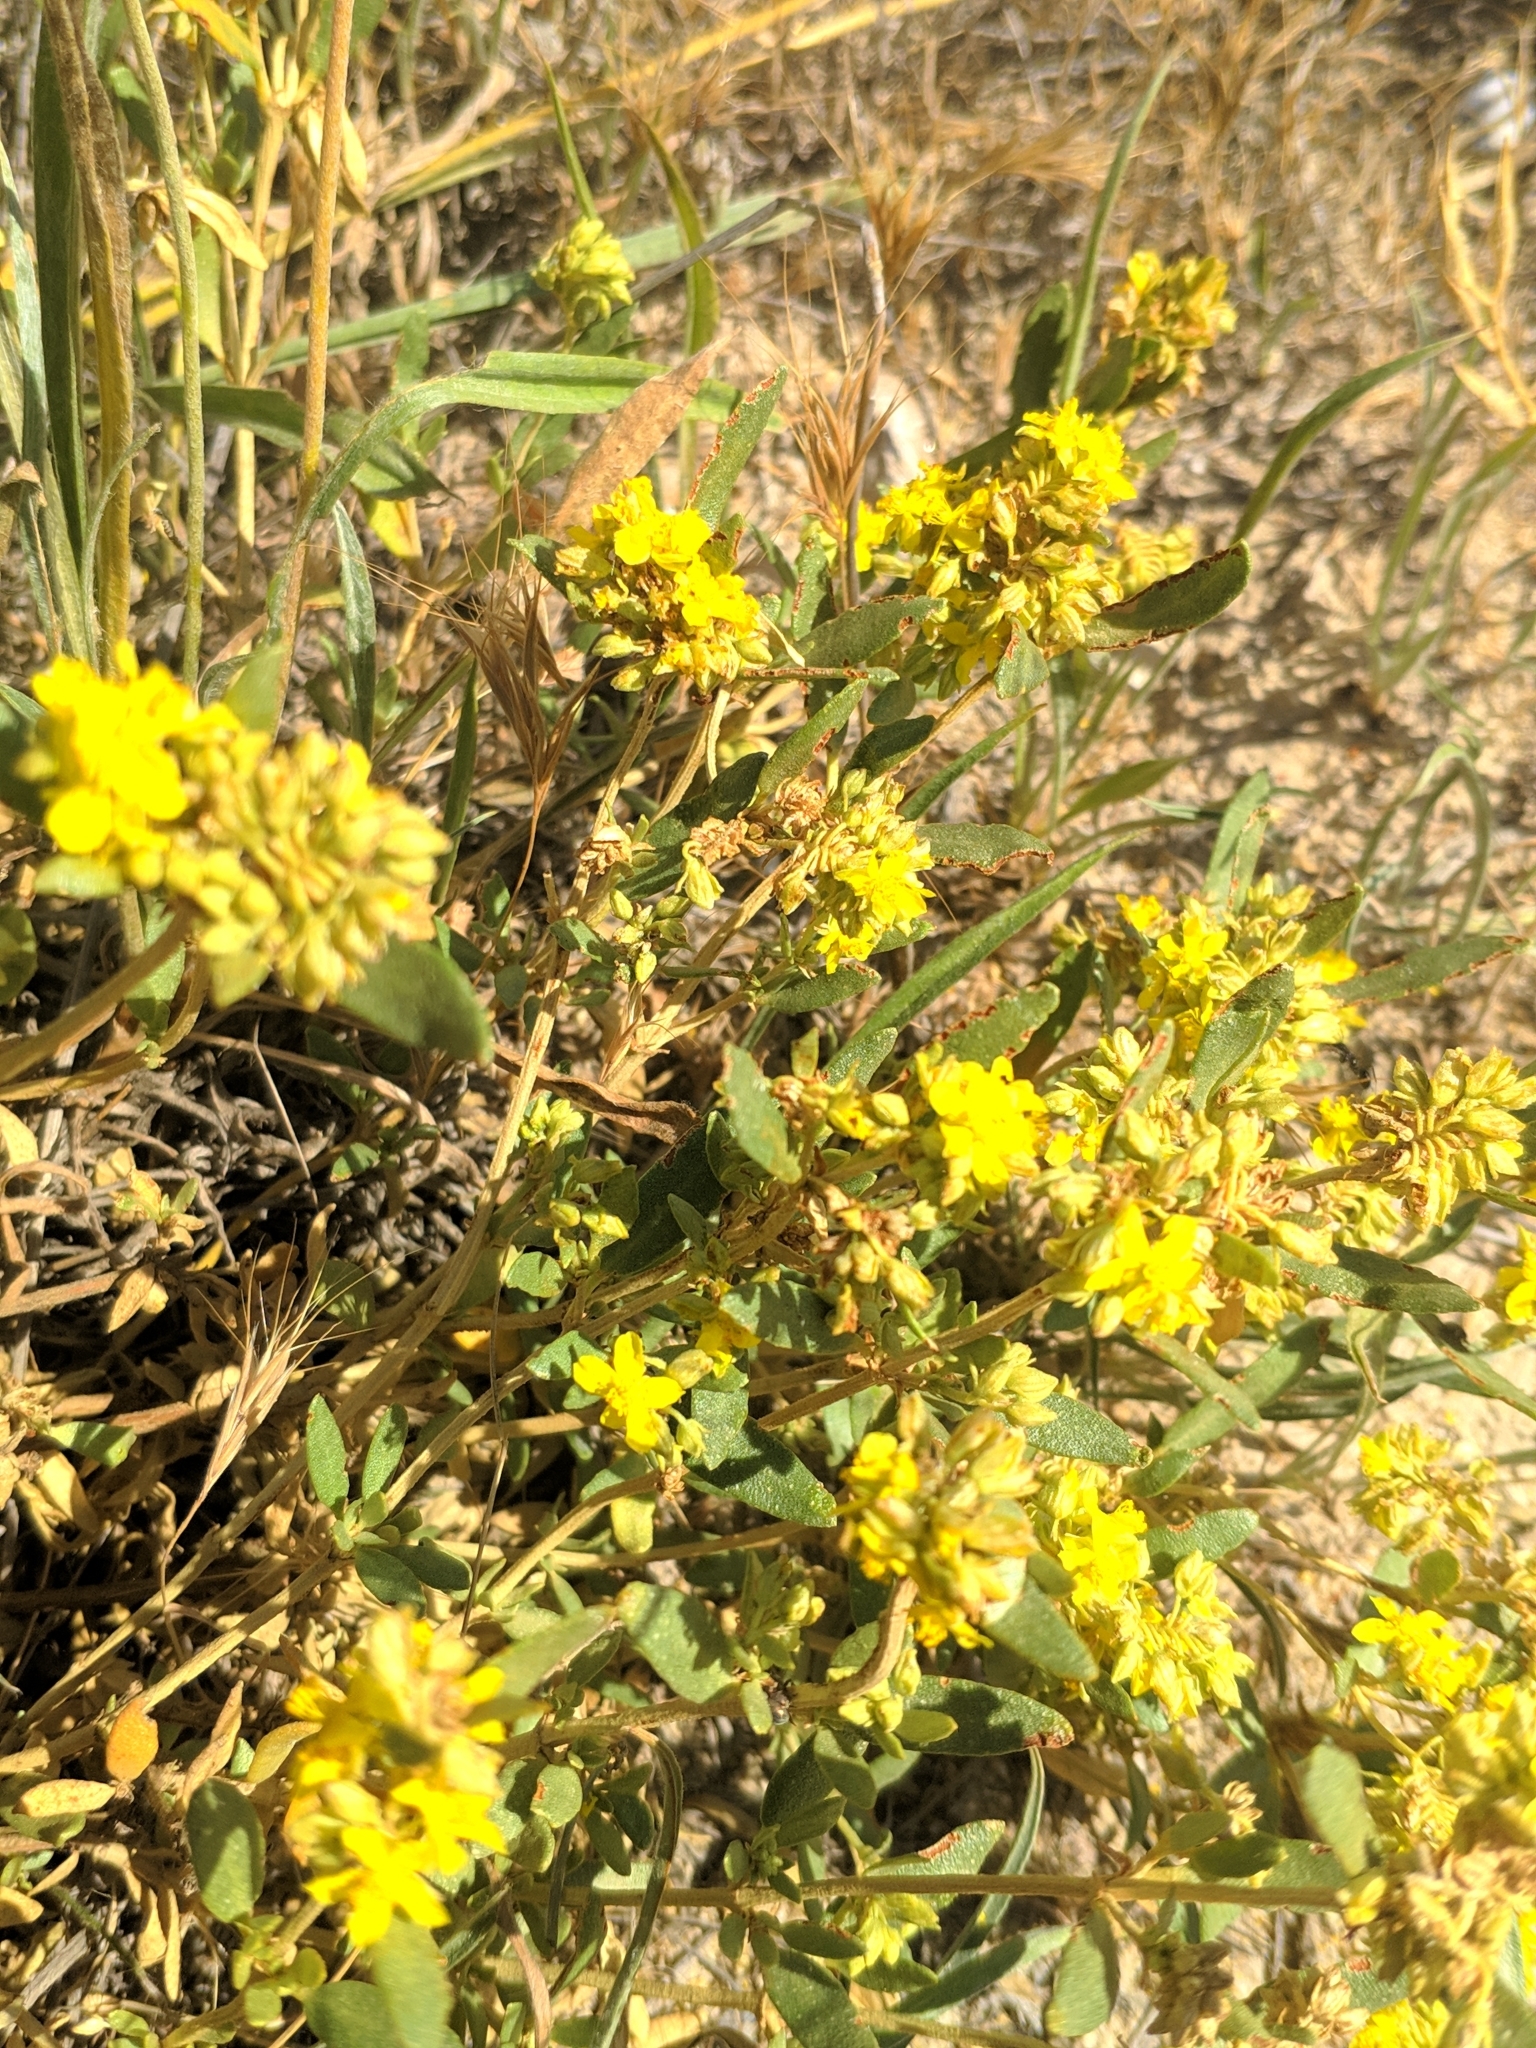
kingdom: Plantae
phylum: Tracheophyta
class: Magnoliopsida
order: Malvales
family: Cistaceae
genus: Helianthemum
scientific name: Helianthemum squamatum
